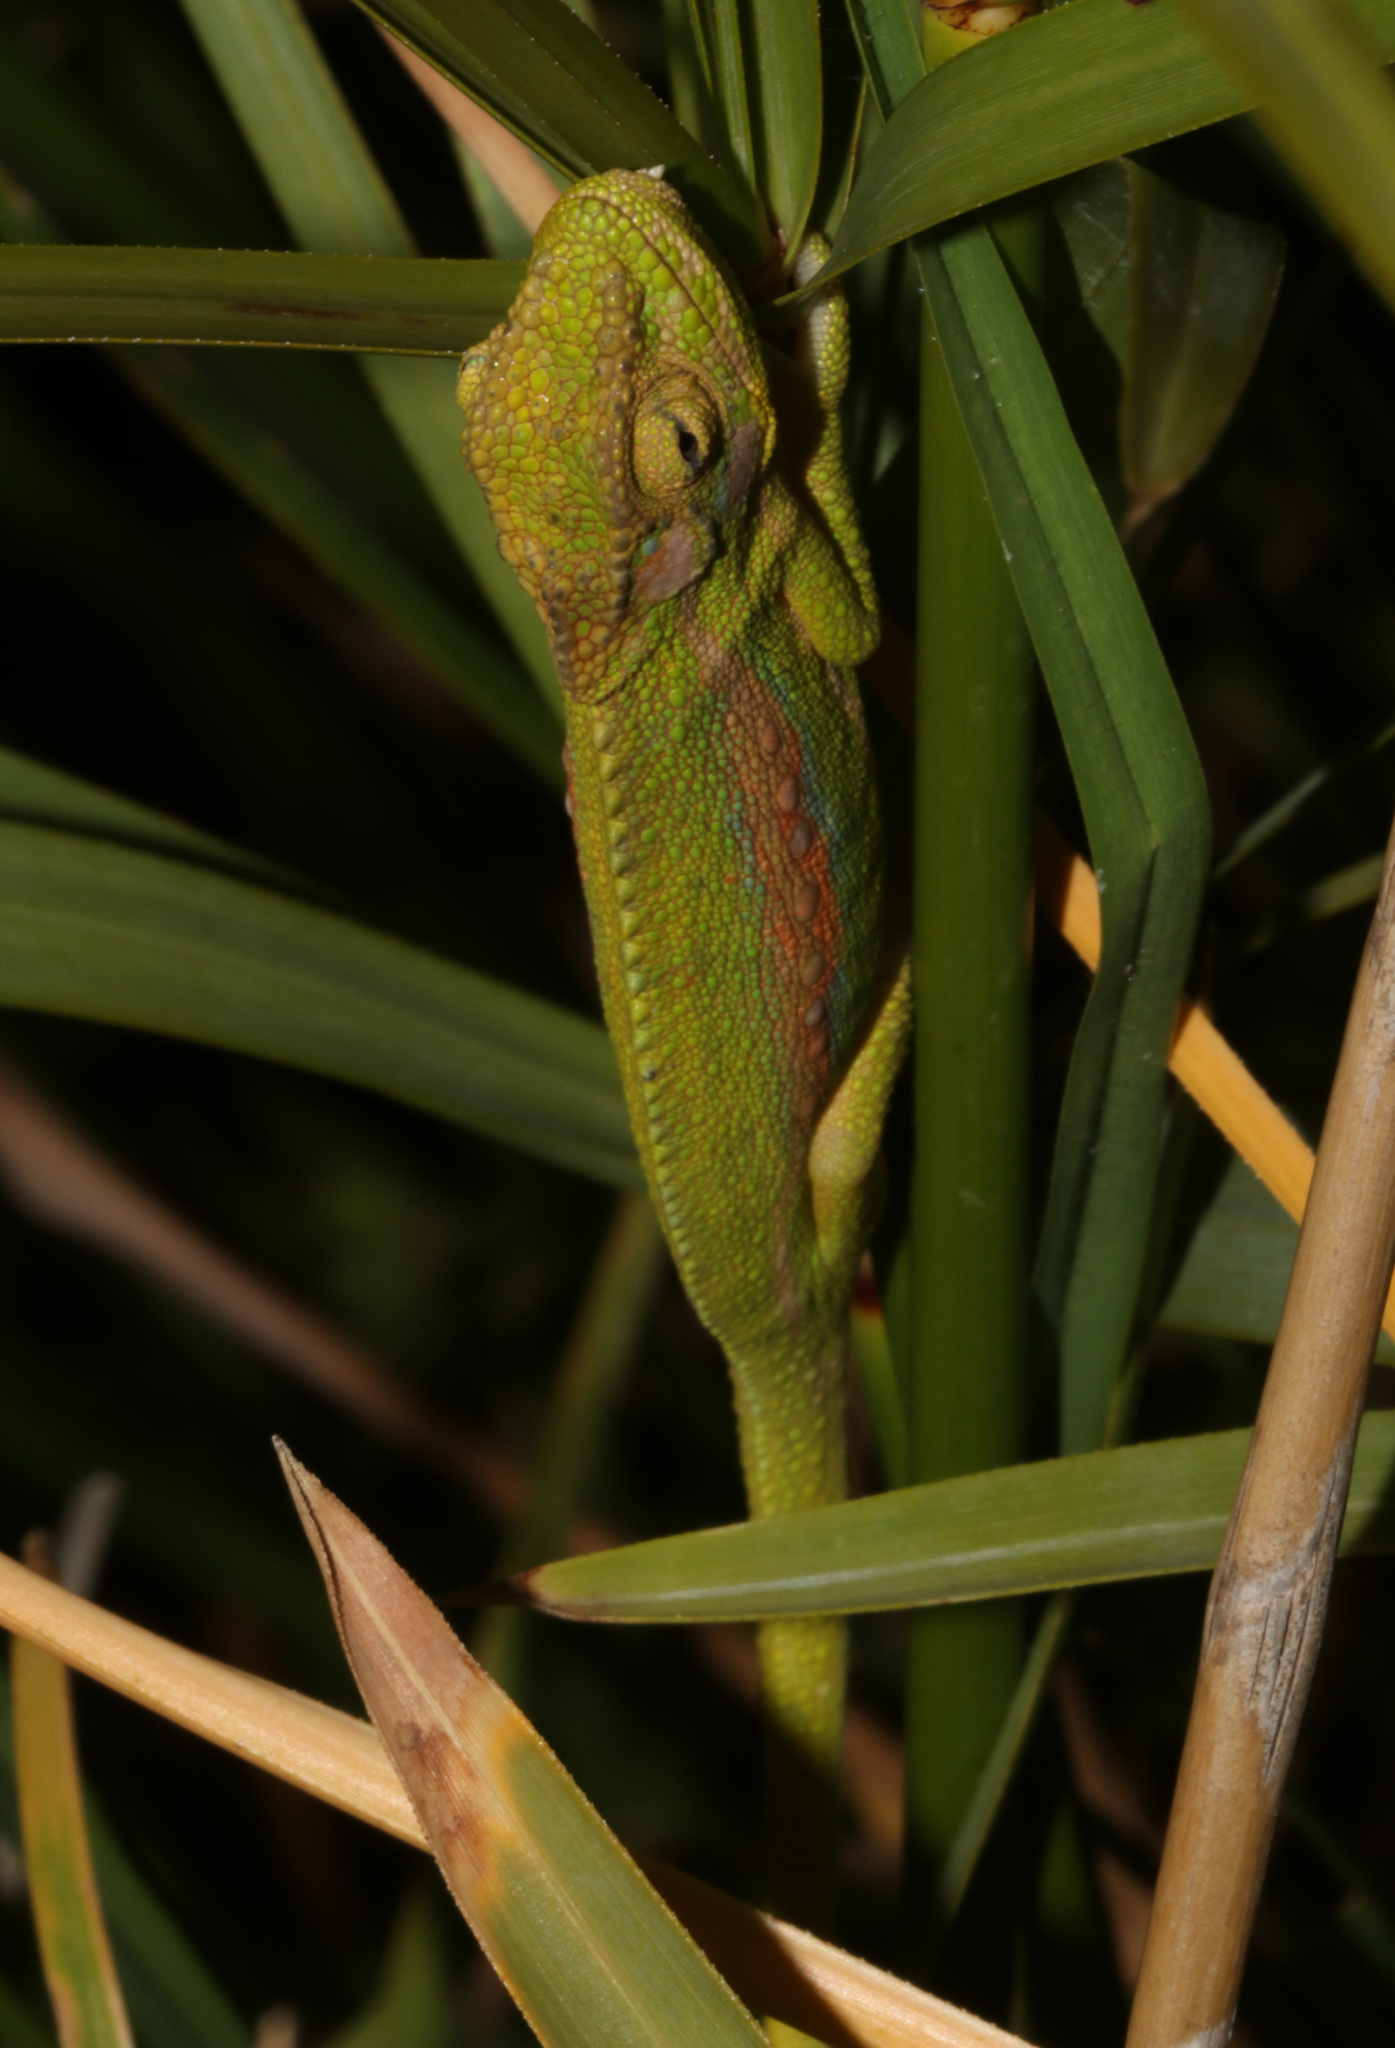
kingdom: Animalia
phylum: Chordata
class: Squamata
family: Chamaeleonidae
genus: Bradypodion
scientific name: Bradypodion pumilum
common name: Cape dwarf chameleon
